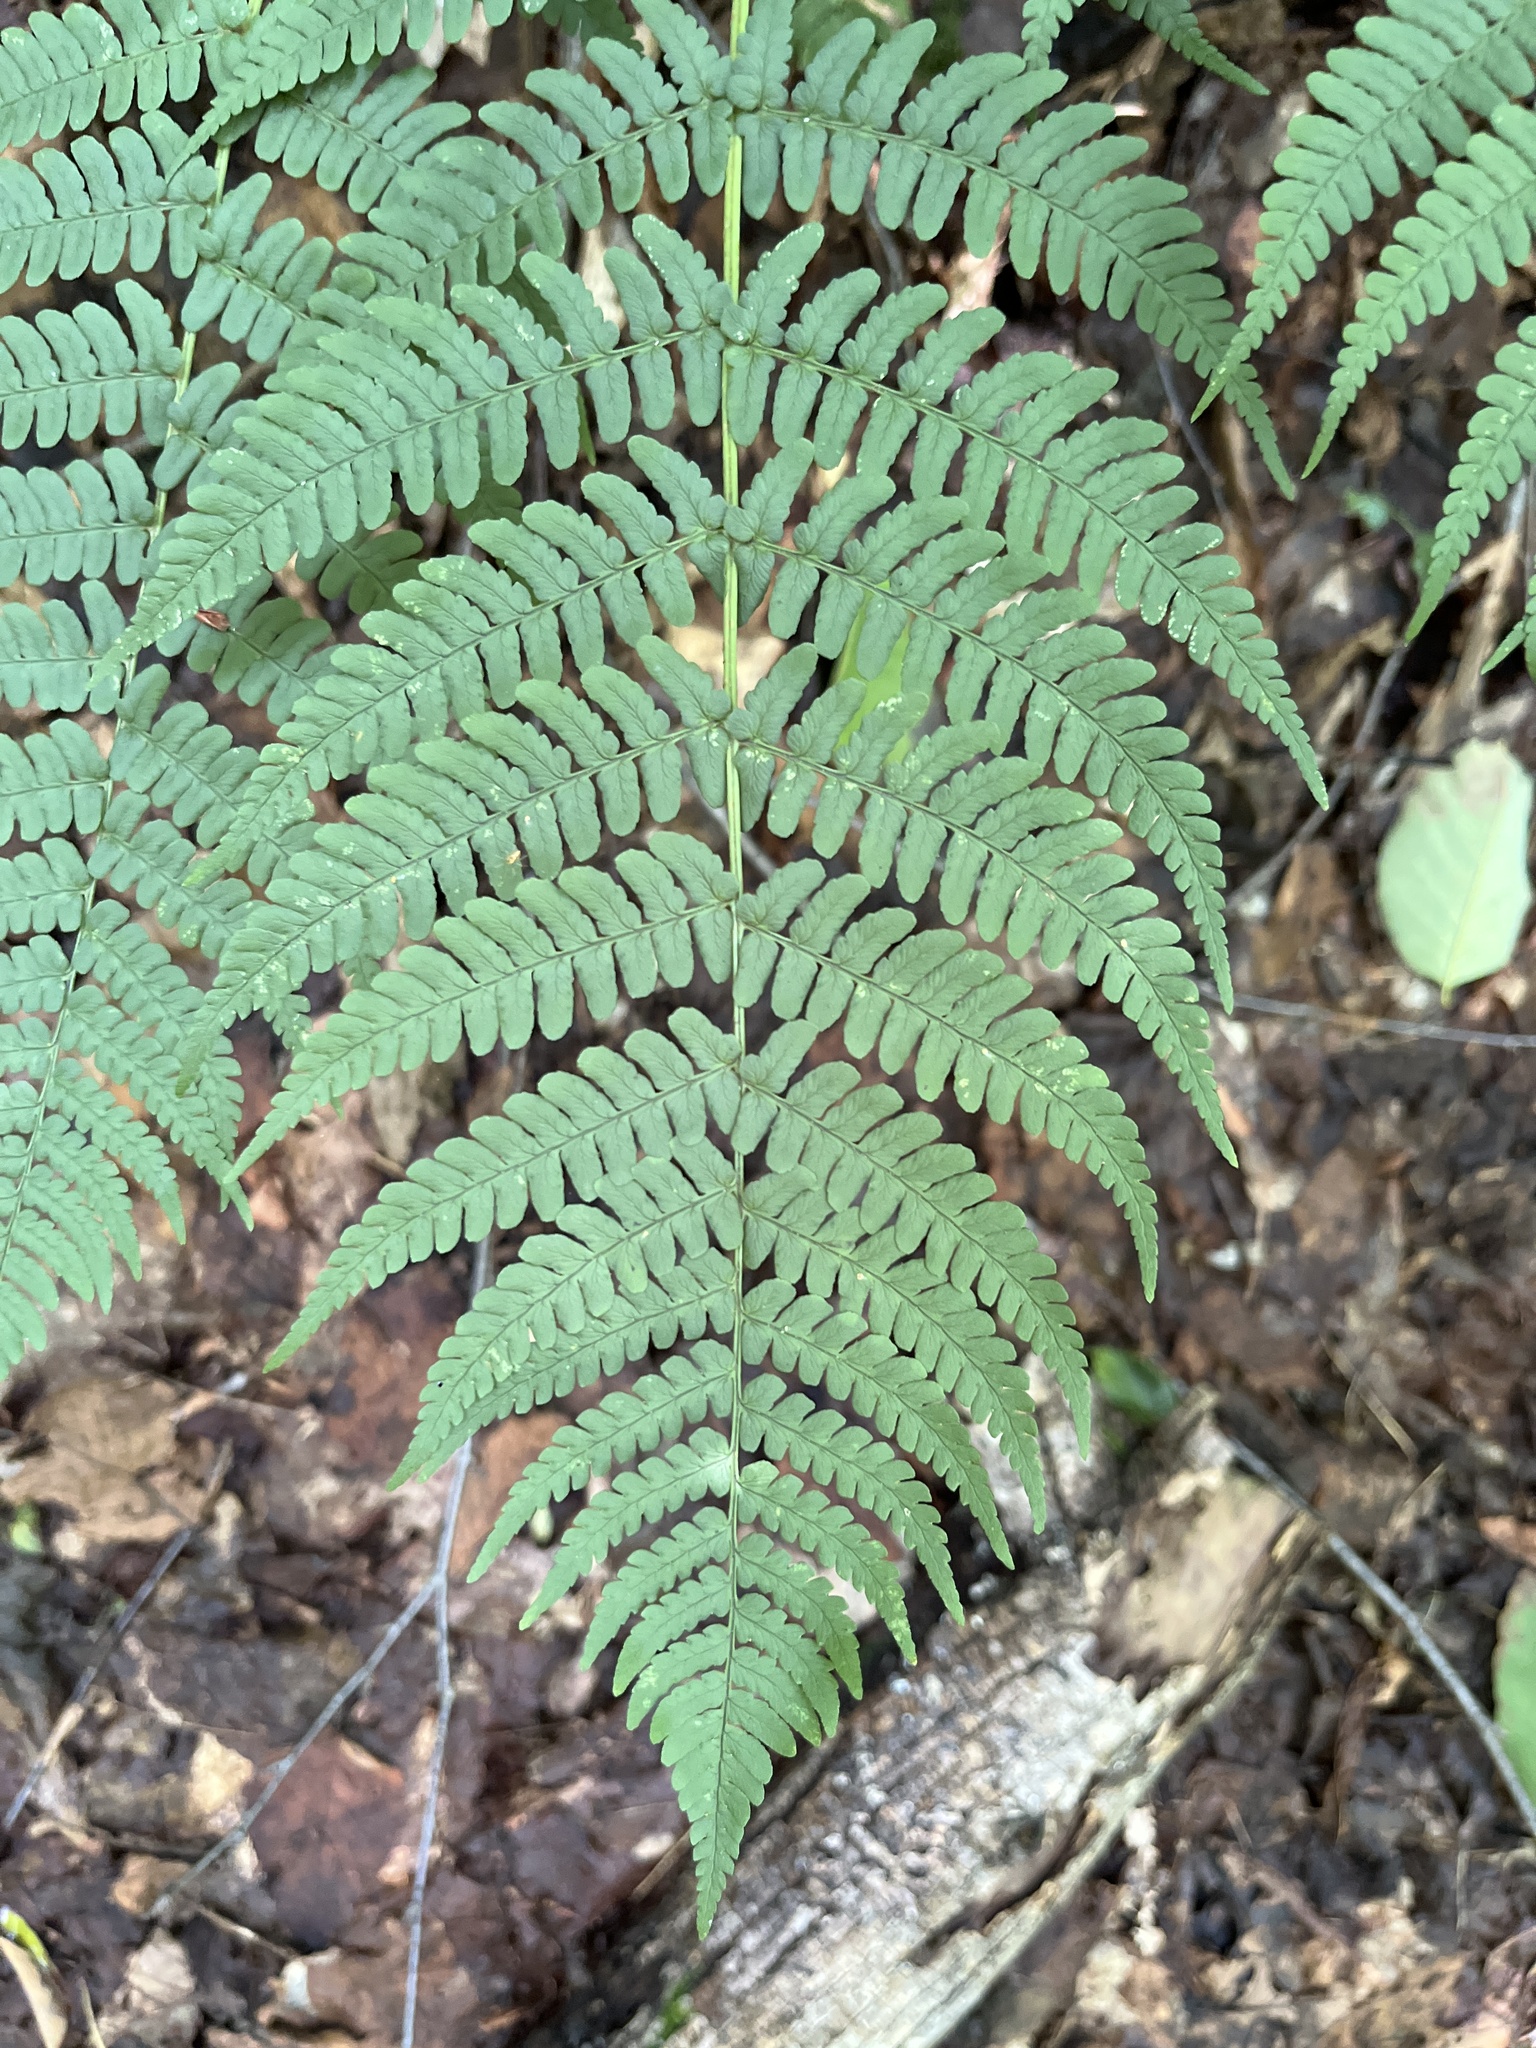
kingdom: Plantae
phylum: Tracheophyta
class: Polypodiopsida
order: Polypodiales
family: Dryopteridaceae
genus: Dryopteris
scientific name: Dryopteris marginalis
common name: Marginal wood fern
